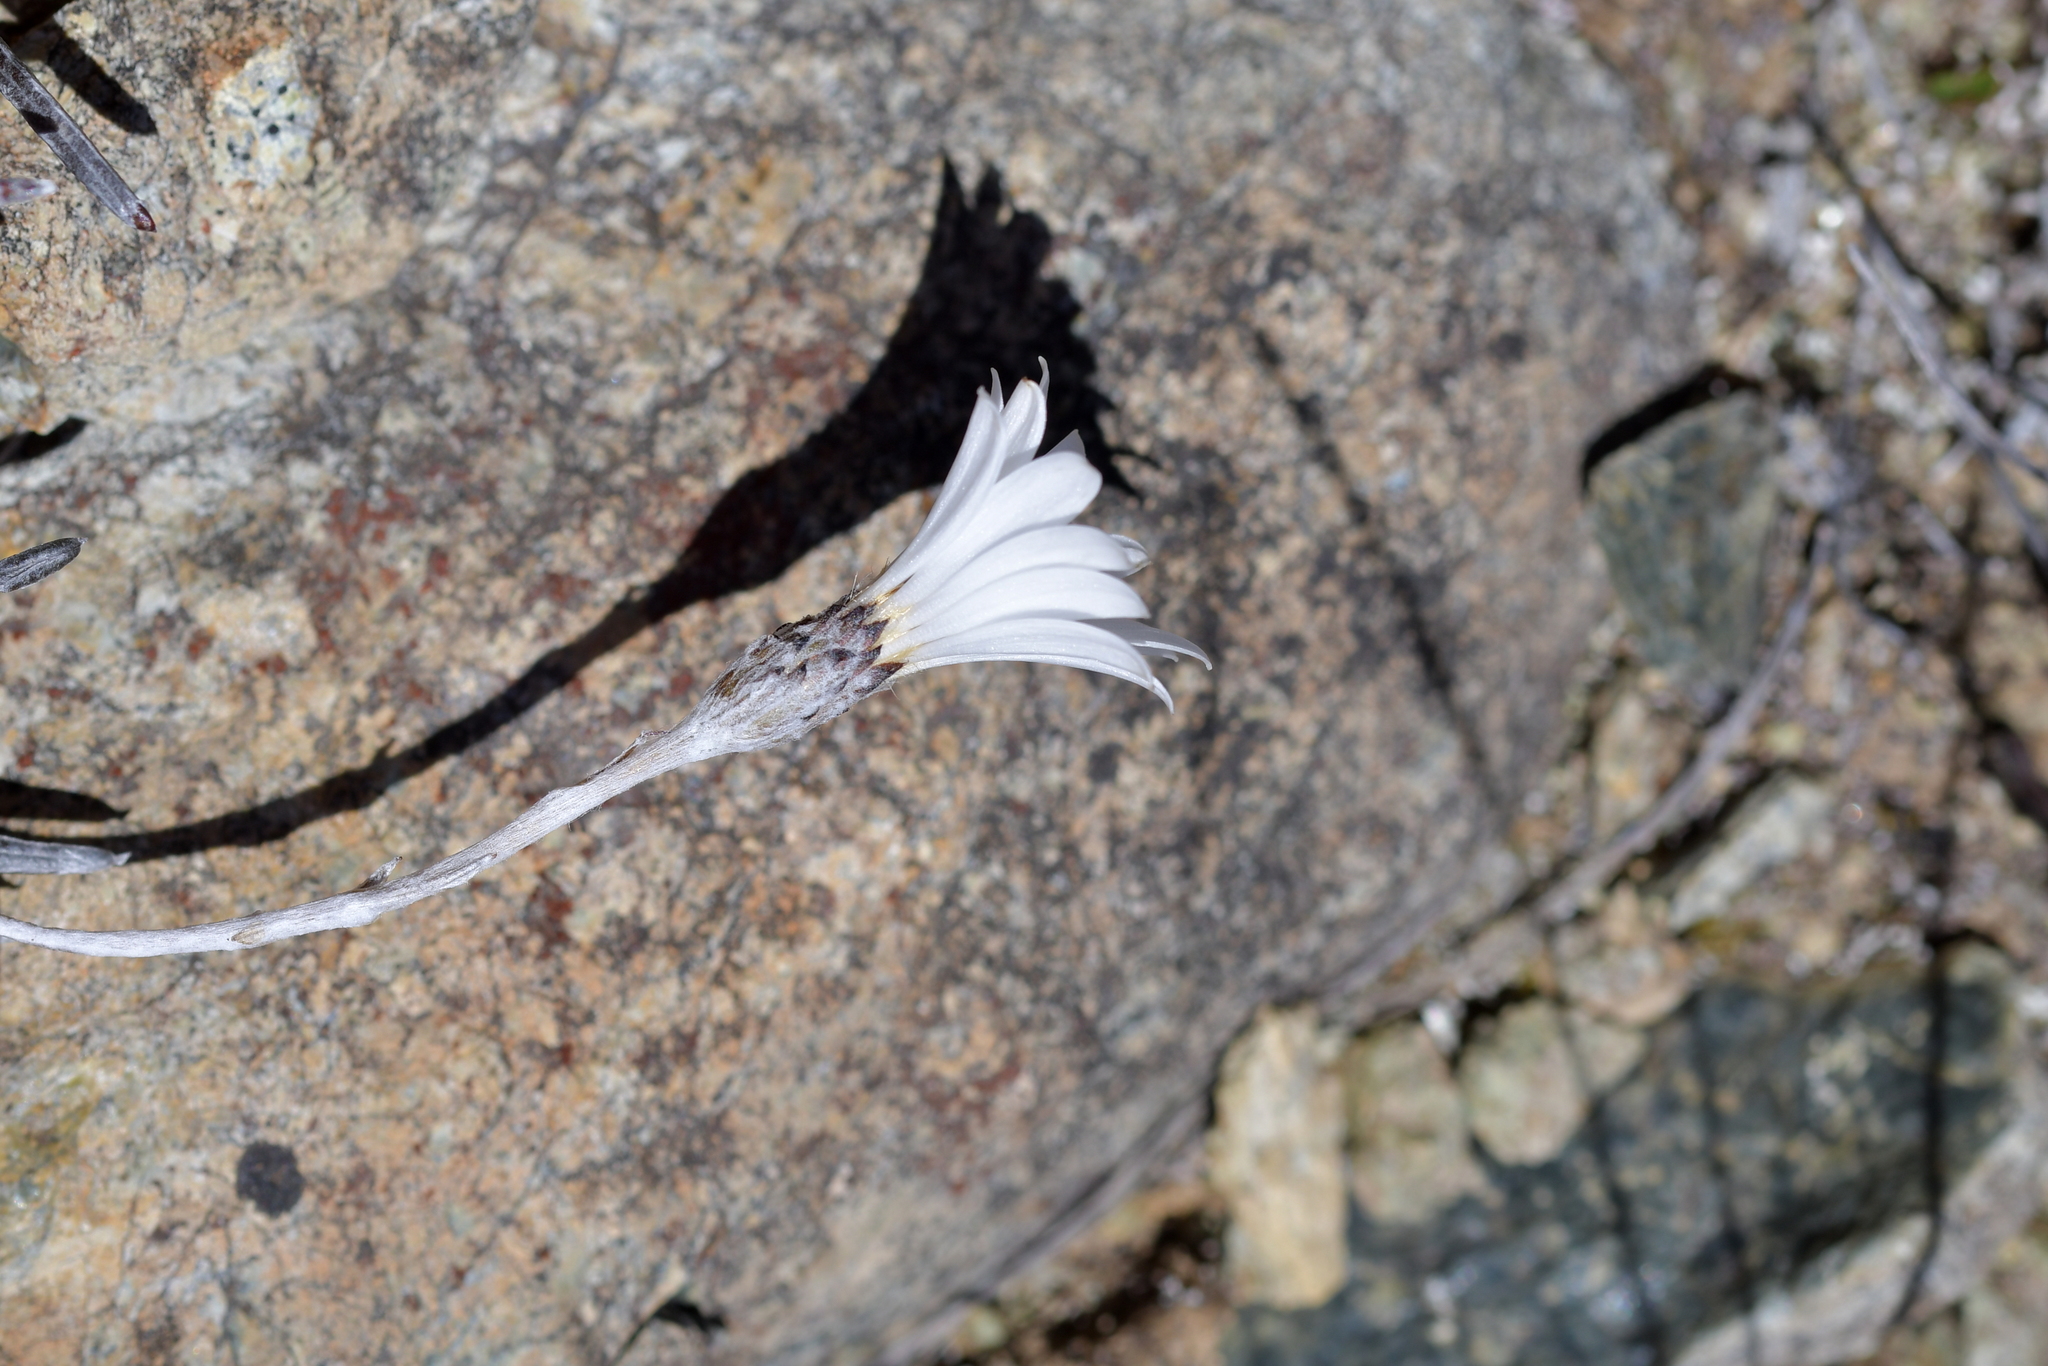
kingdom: Plantae
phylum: Tracheophyta
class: Magnoliopsida
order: Asterales
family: Asteraceae
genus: Celmisia
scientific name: Celmisia gracilenta
